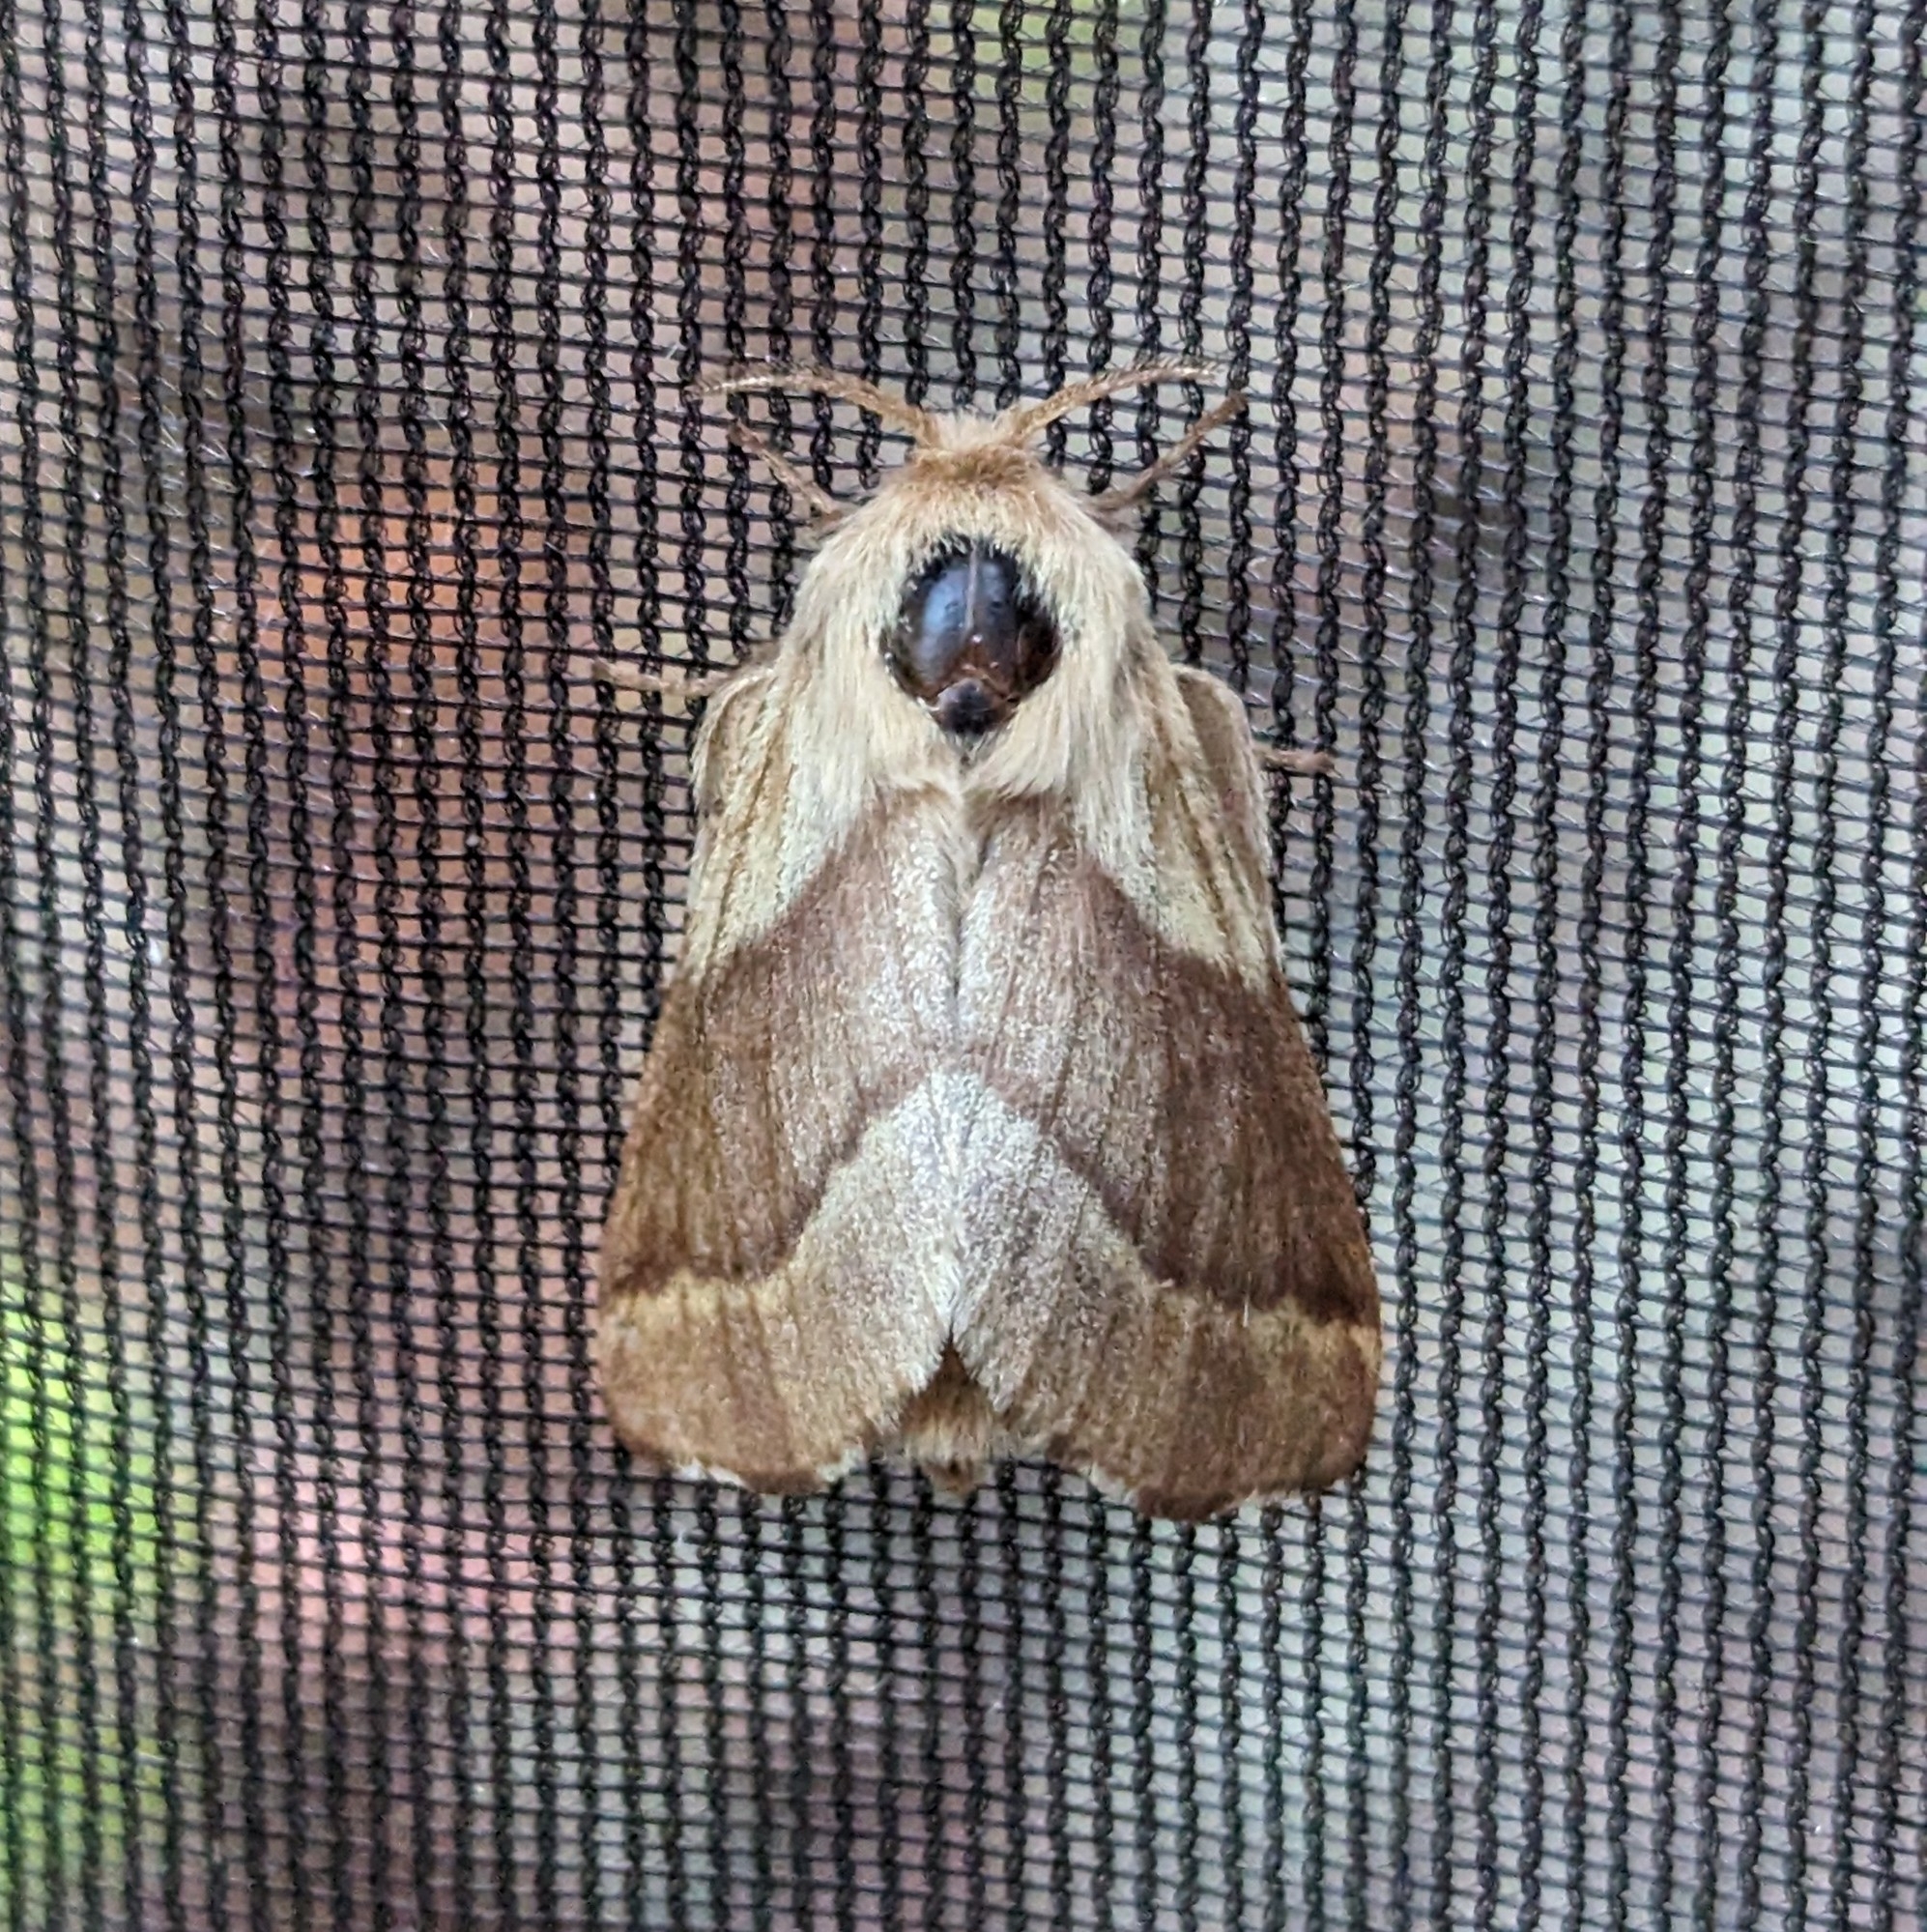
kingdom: Animalia
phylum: Arthropoda
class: Insecta
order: Lepidoptera
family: Lasiocampidae
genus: Malacosoma
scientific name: Malacosoma disstria
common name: Forest tent caterpillar
